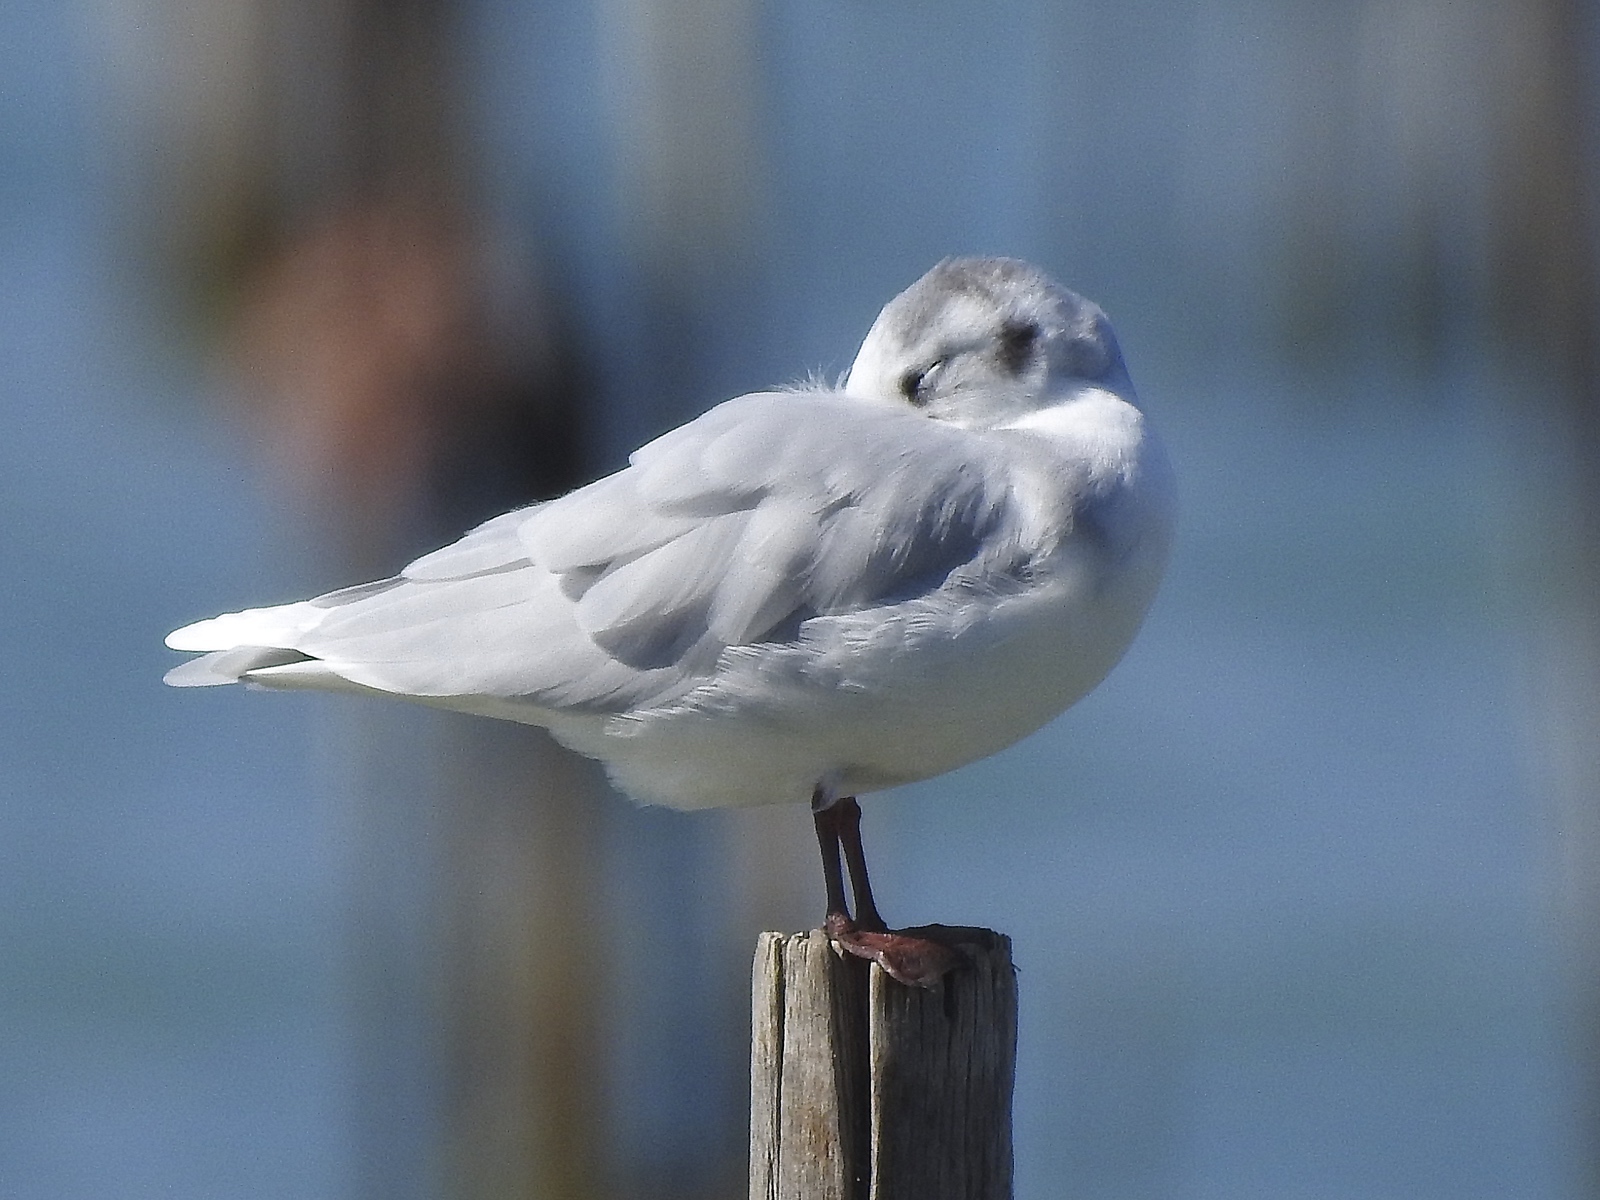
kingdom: Animalia
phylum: Chordata
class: Aves
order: Charadriiformes
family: Laridae
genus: Hydrocoloeus
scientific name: Hydrocoloeus minutus
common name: Little gull
